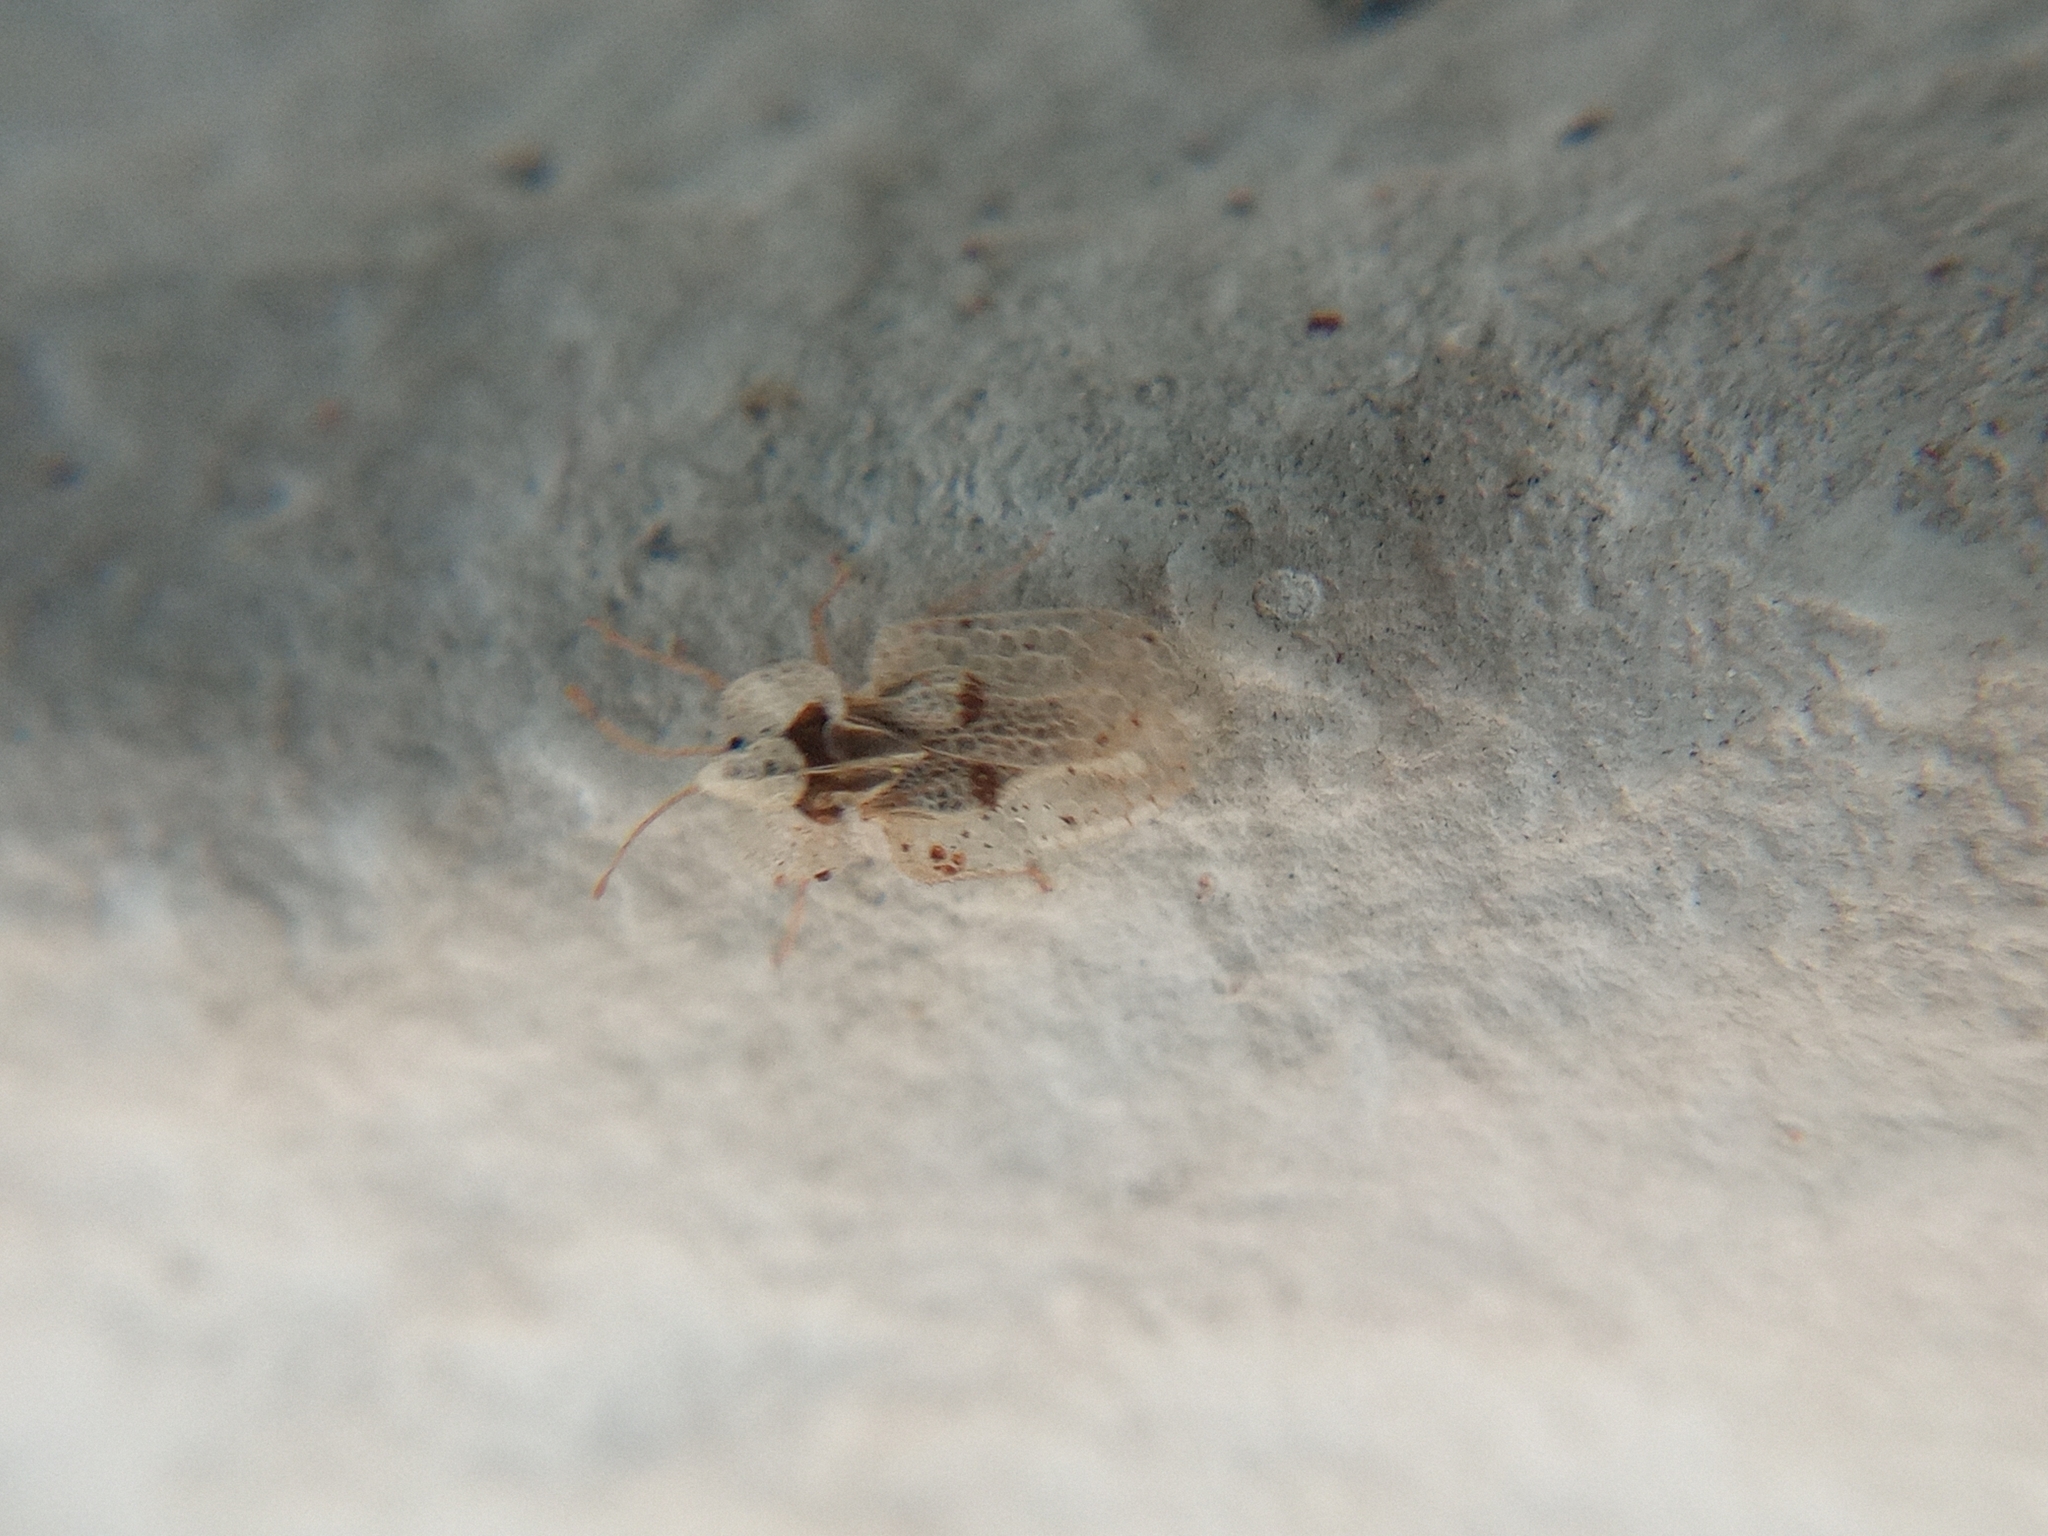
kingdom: Animalia
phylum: Arthropoda
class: Insecta
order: Hemiptera
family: Tingidae
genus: Corythucha
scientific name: Corythucha ciliata
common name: Sycamore lace bug
